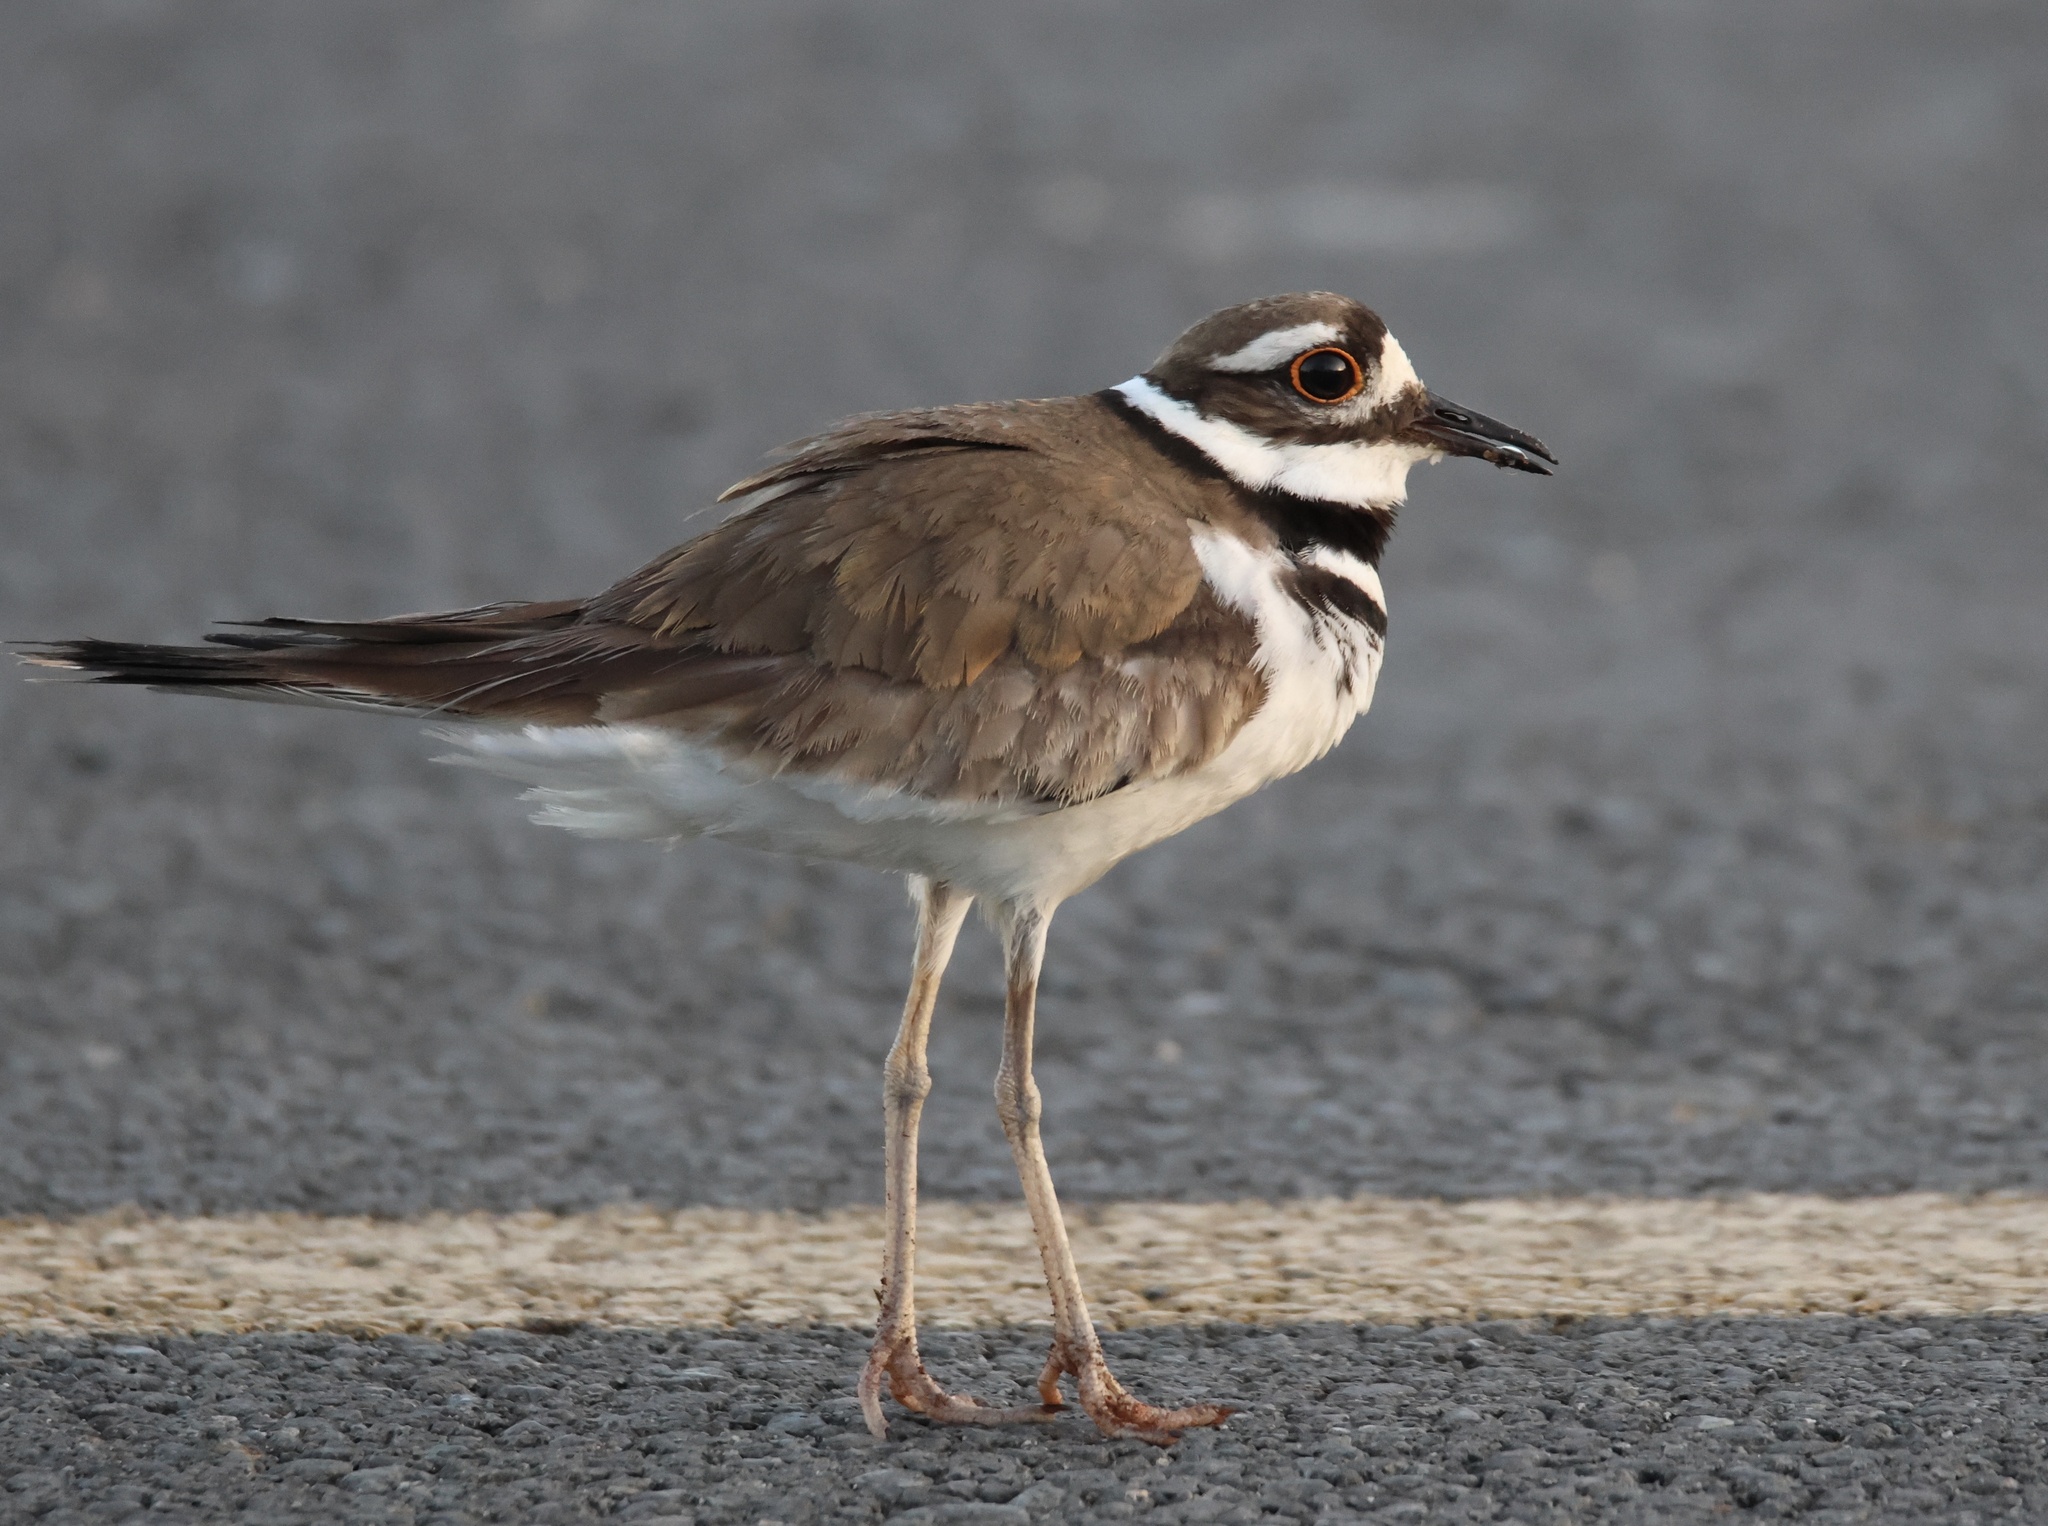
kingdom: Animalia
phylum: Chordata
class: Aves
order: Charadriiformes
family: Charadriidae
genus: Charadrius
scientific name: Charadrius vociferus
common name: Killdeer
